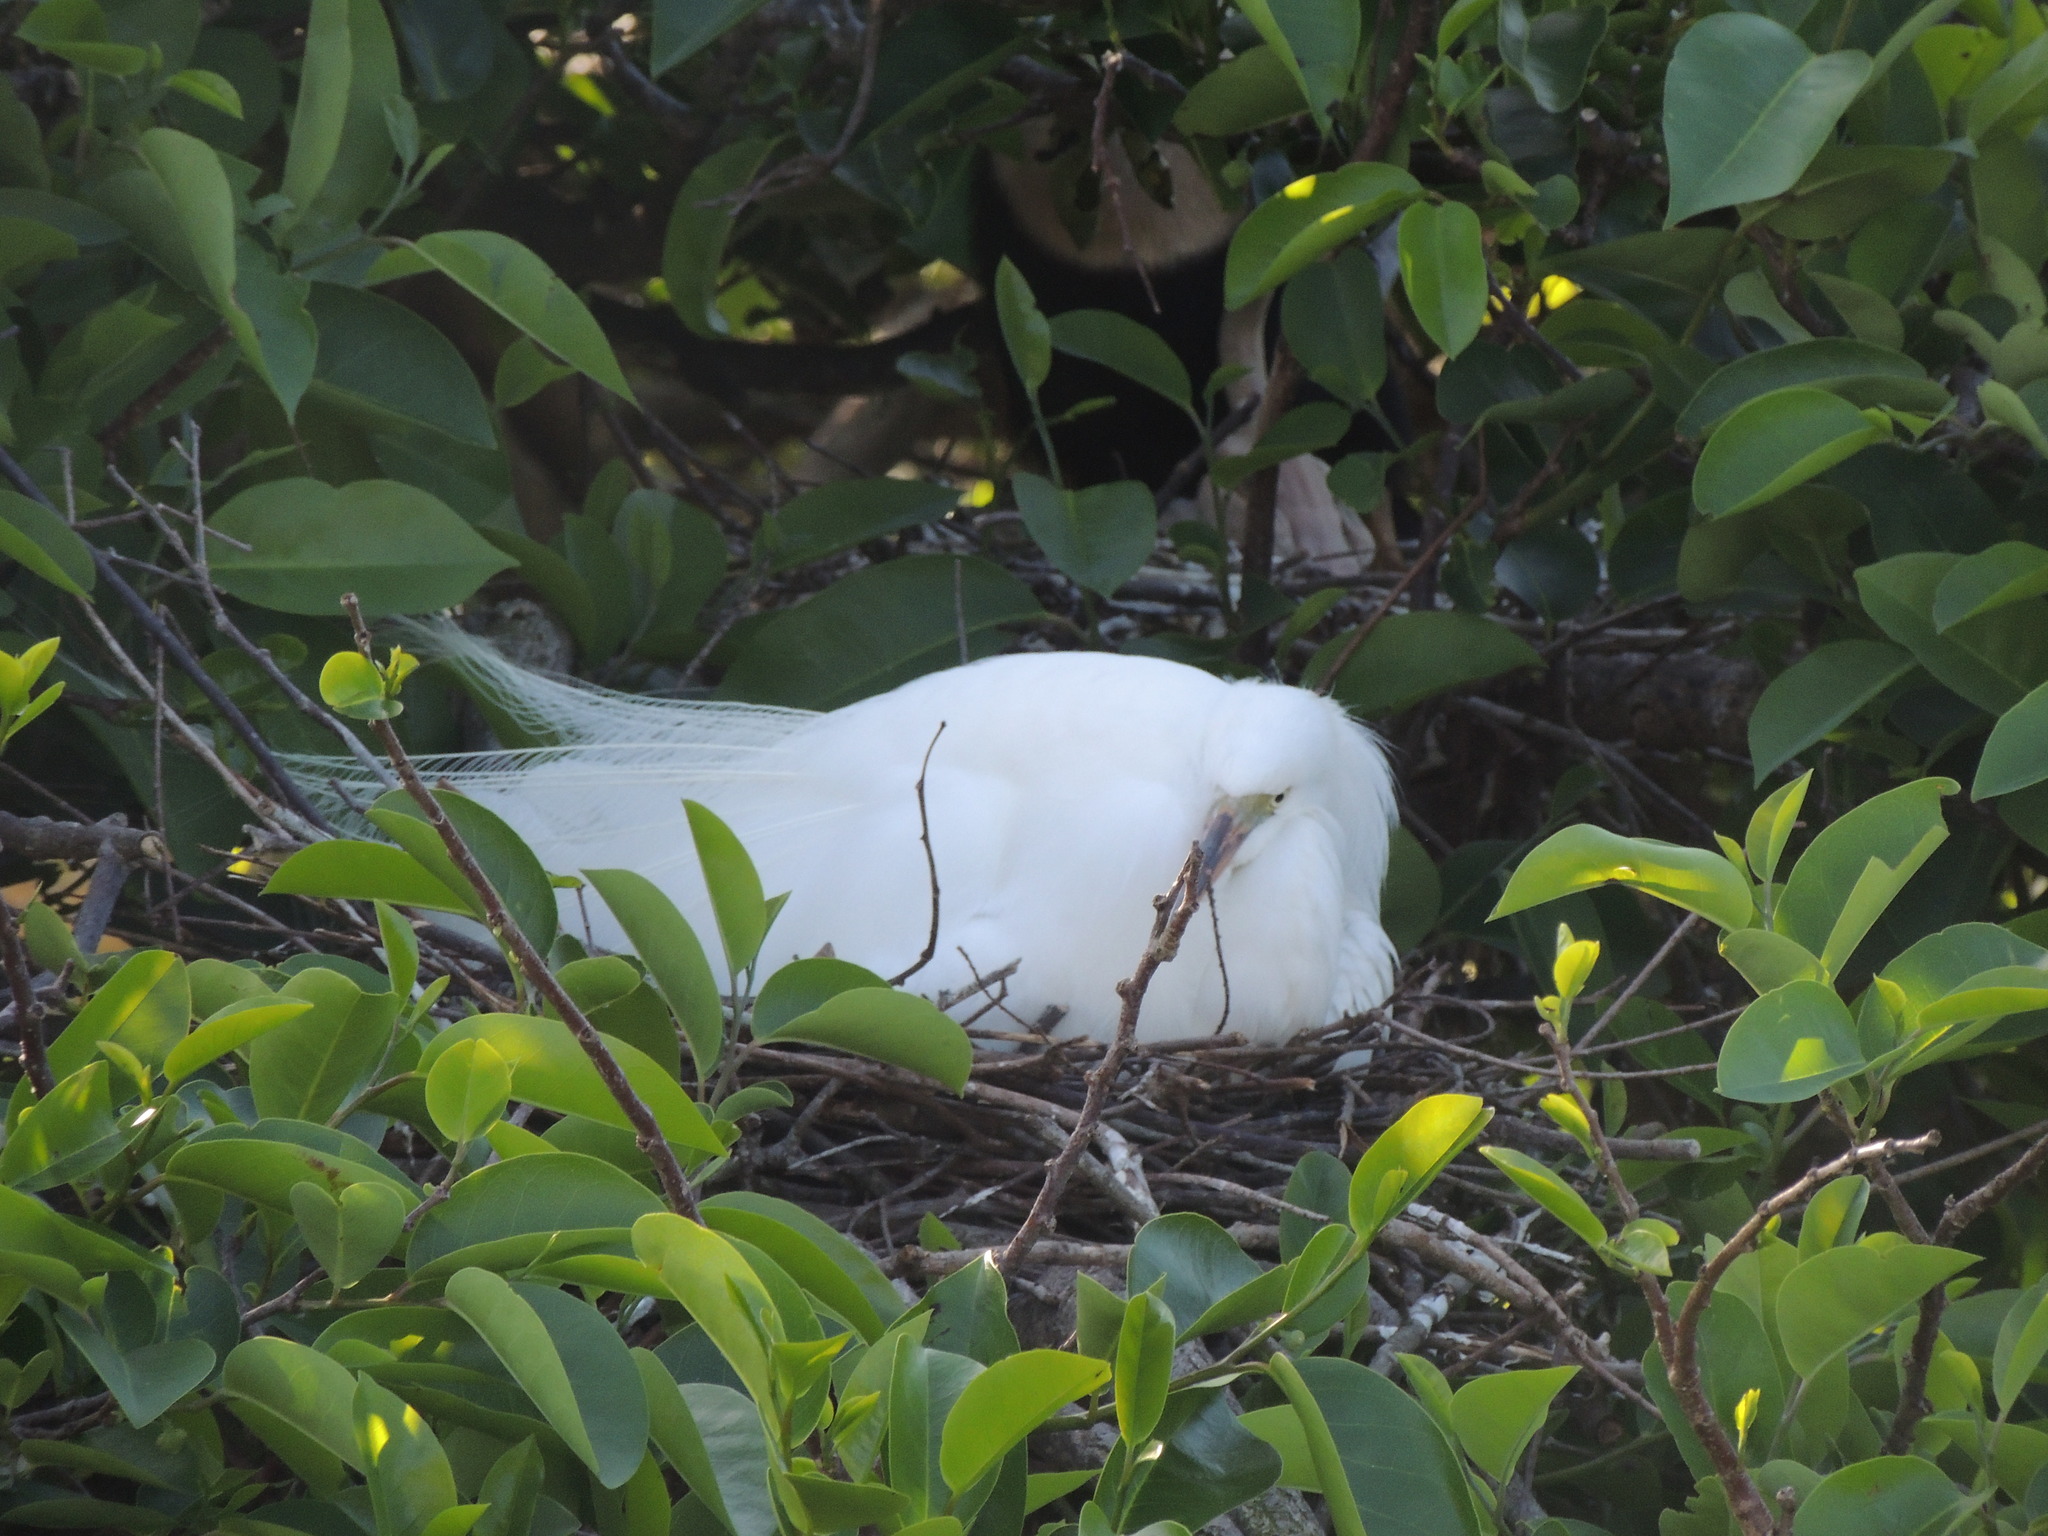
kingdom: Animalia
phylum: Chordata
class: Aves
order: Pelecaniformes
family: Ardeidae
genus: Ardea
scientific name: Ardea alba
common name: Great egret
